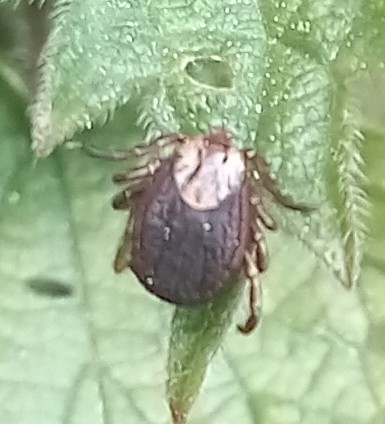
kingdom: Animalia
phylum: Arthropoda
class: Arachnida
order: Ixodida
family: Ixodidae
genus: Dermacentor
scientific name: Dermacentor marginatus
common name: Ornate sheep tick
